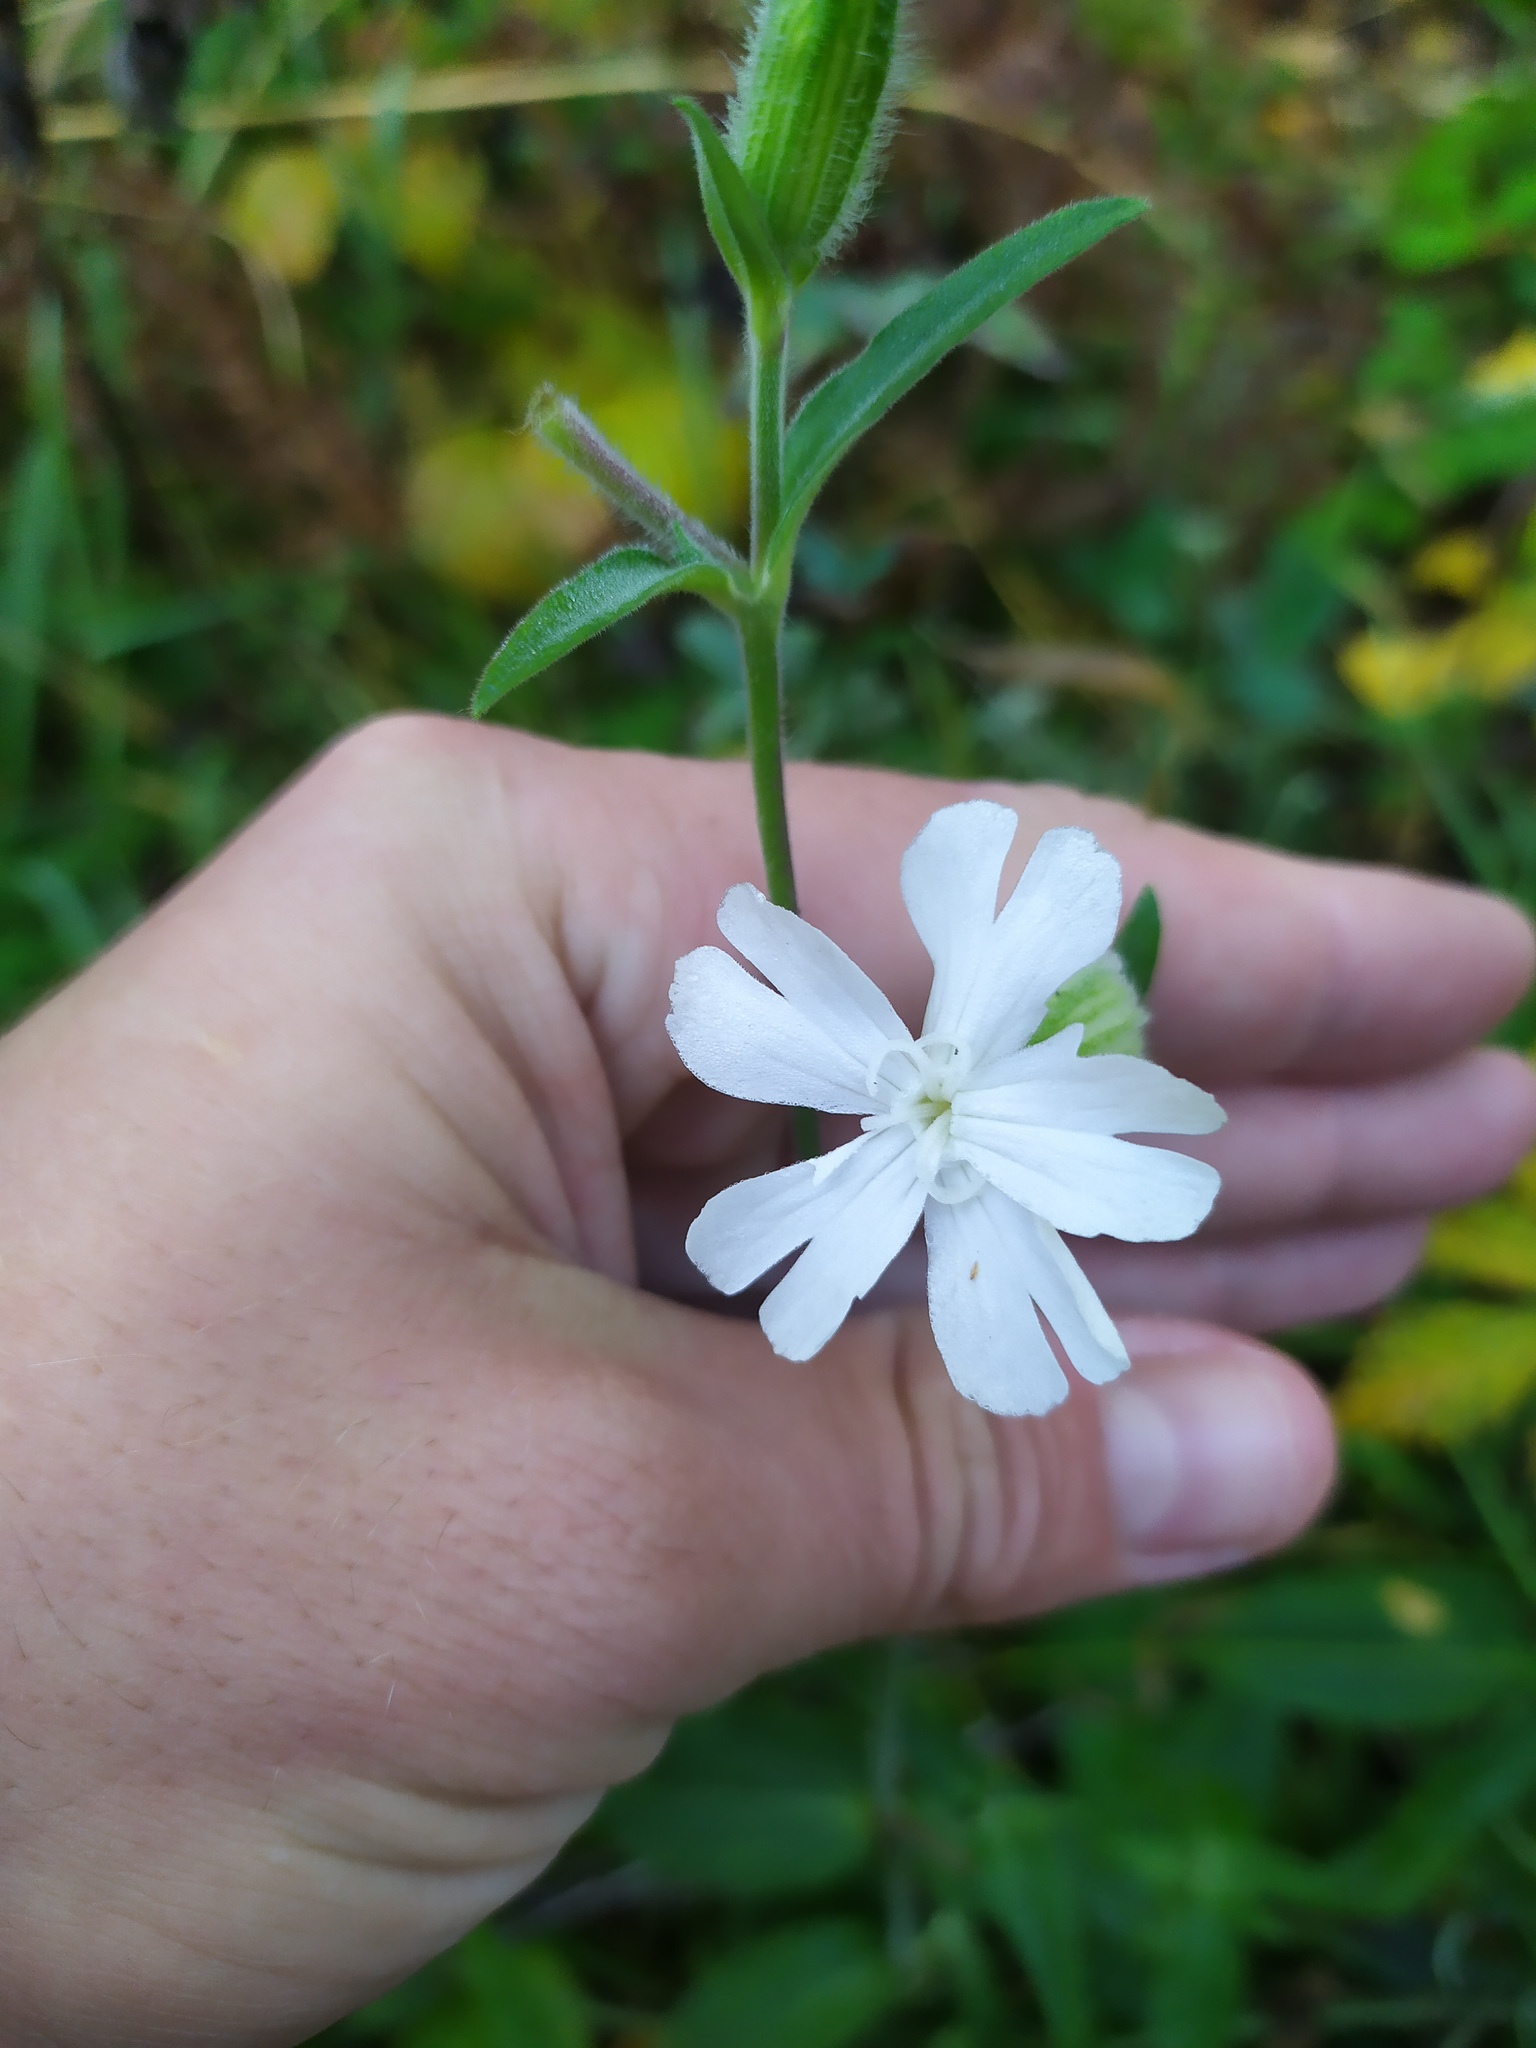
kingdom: Plantae
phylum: Tracheophyta
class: Magnoliopsida
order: Caryophyllales
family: Caryophyllaceae
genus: Silene
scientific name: Silene latifolia
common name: White campion
